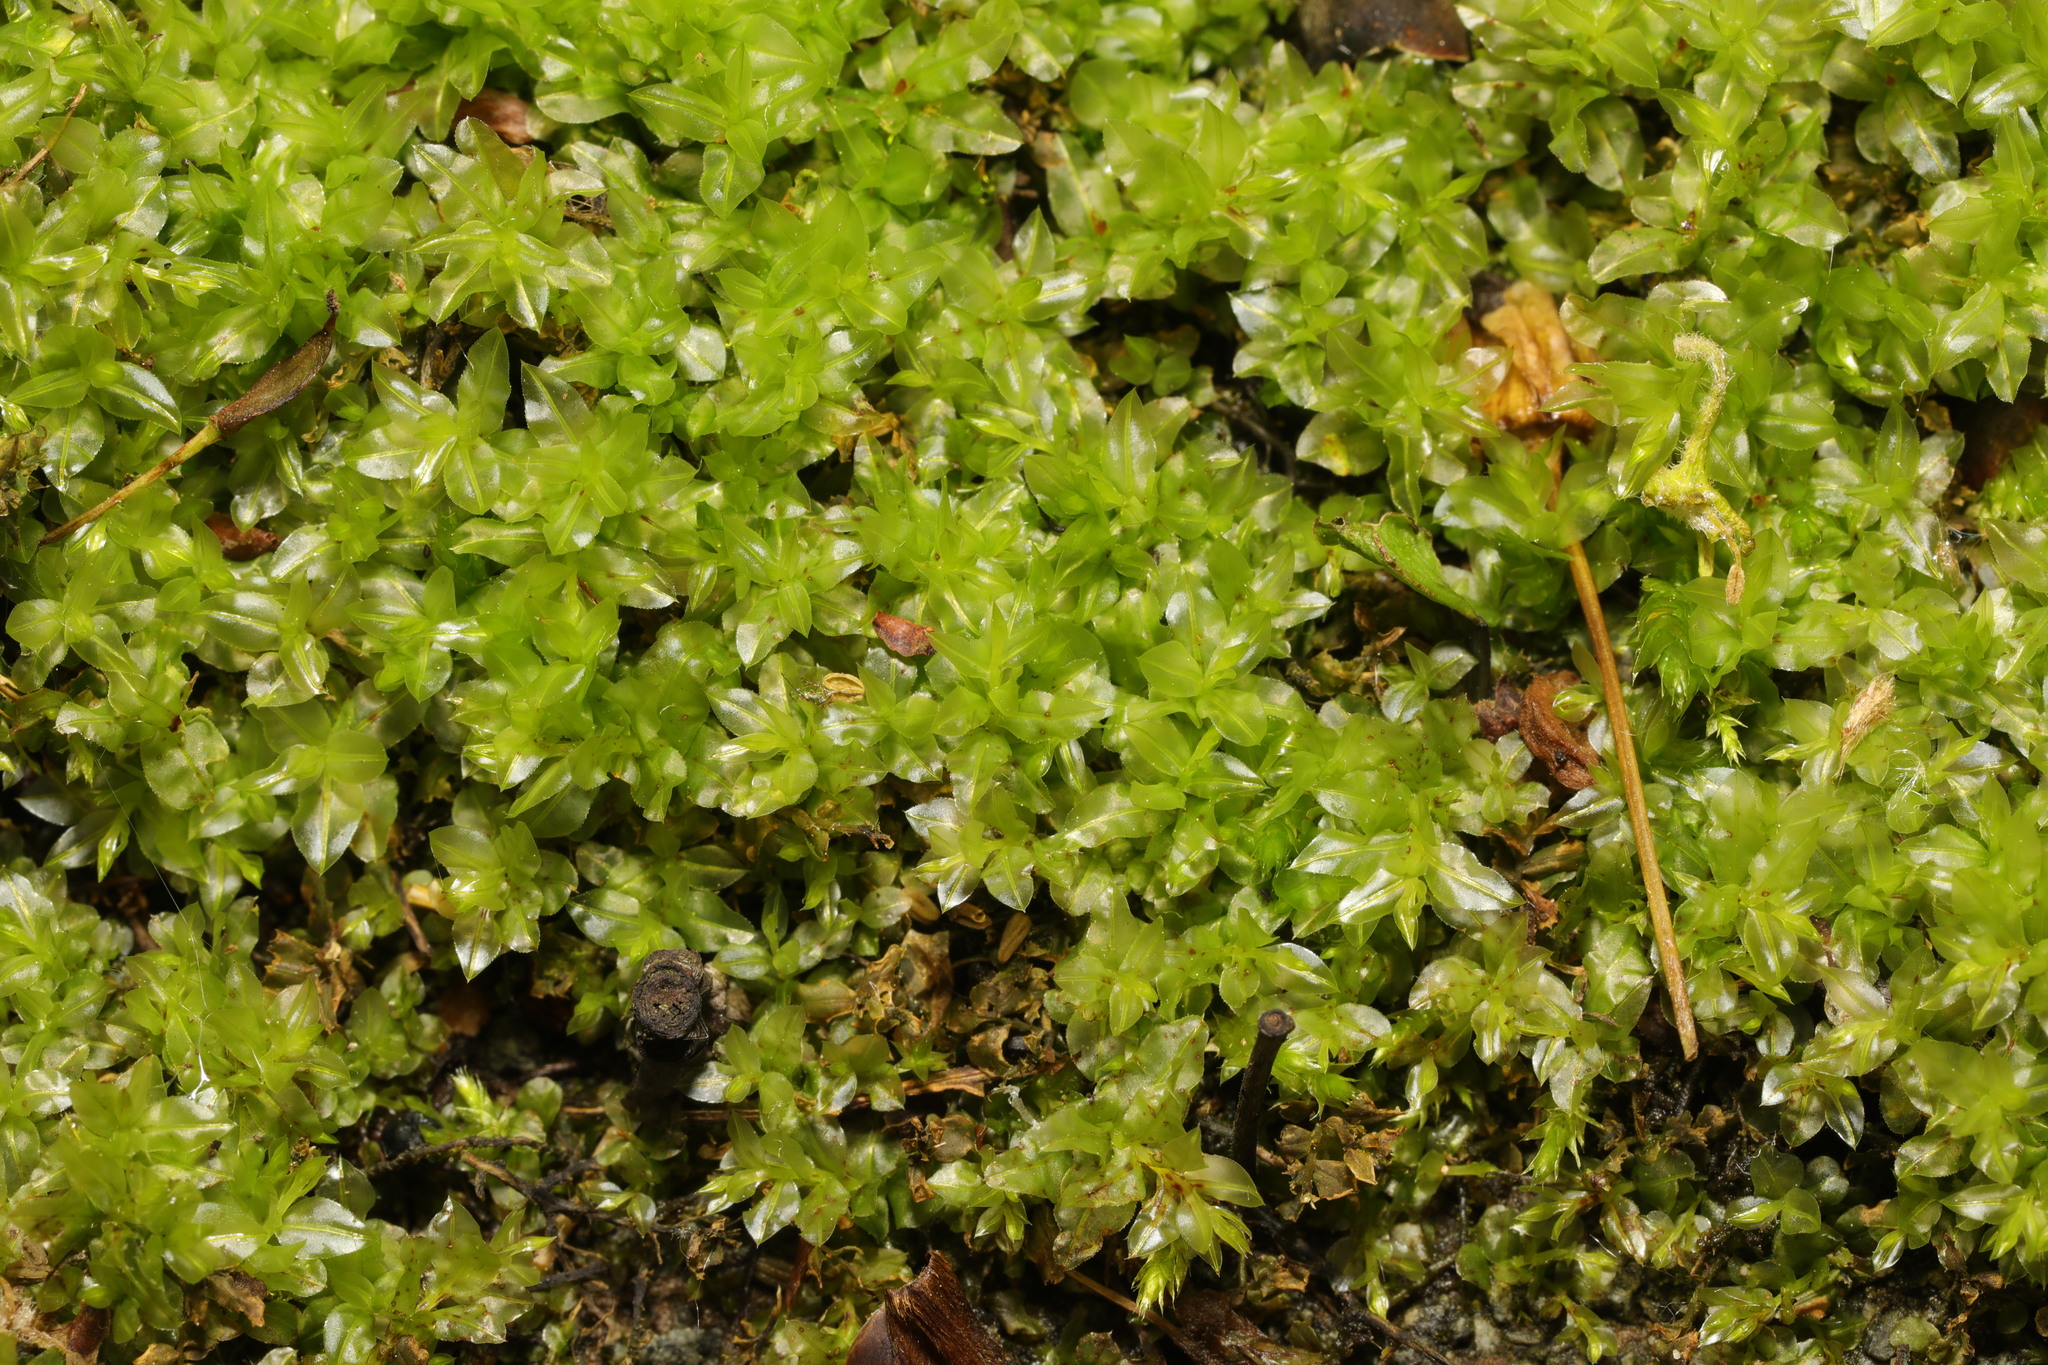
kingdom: Plantae
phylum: Bryophyta
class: Bryopsida
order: Bryales
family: Mniaceae
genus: Plagiomnium
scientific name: Plagiomnium undulatum
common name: Hart's-tongue thyme-moss
